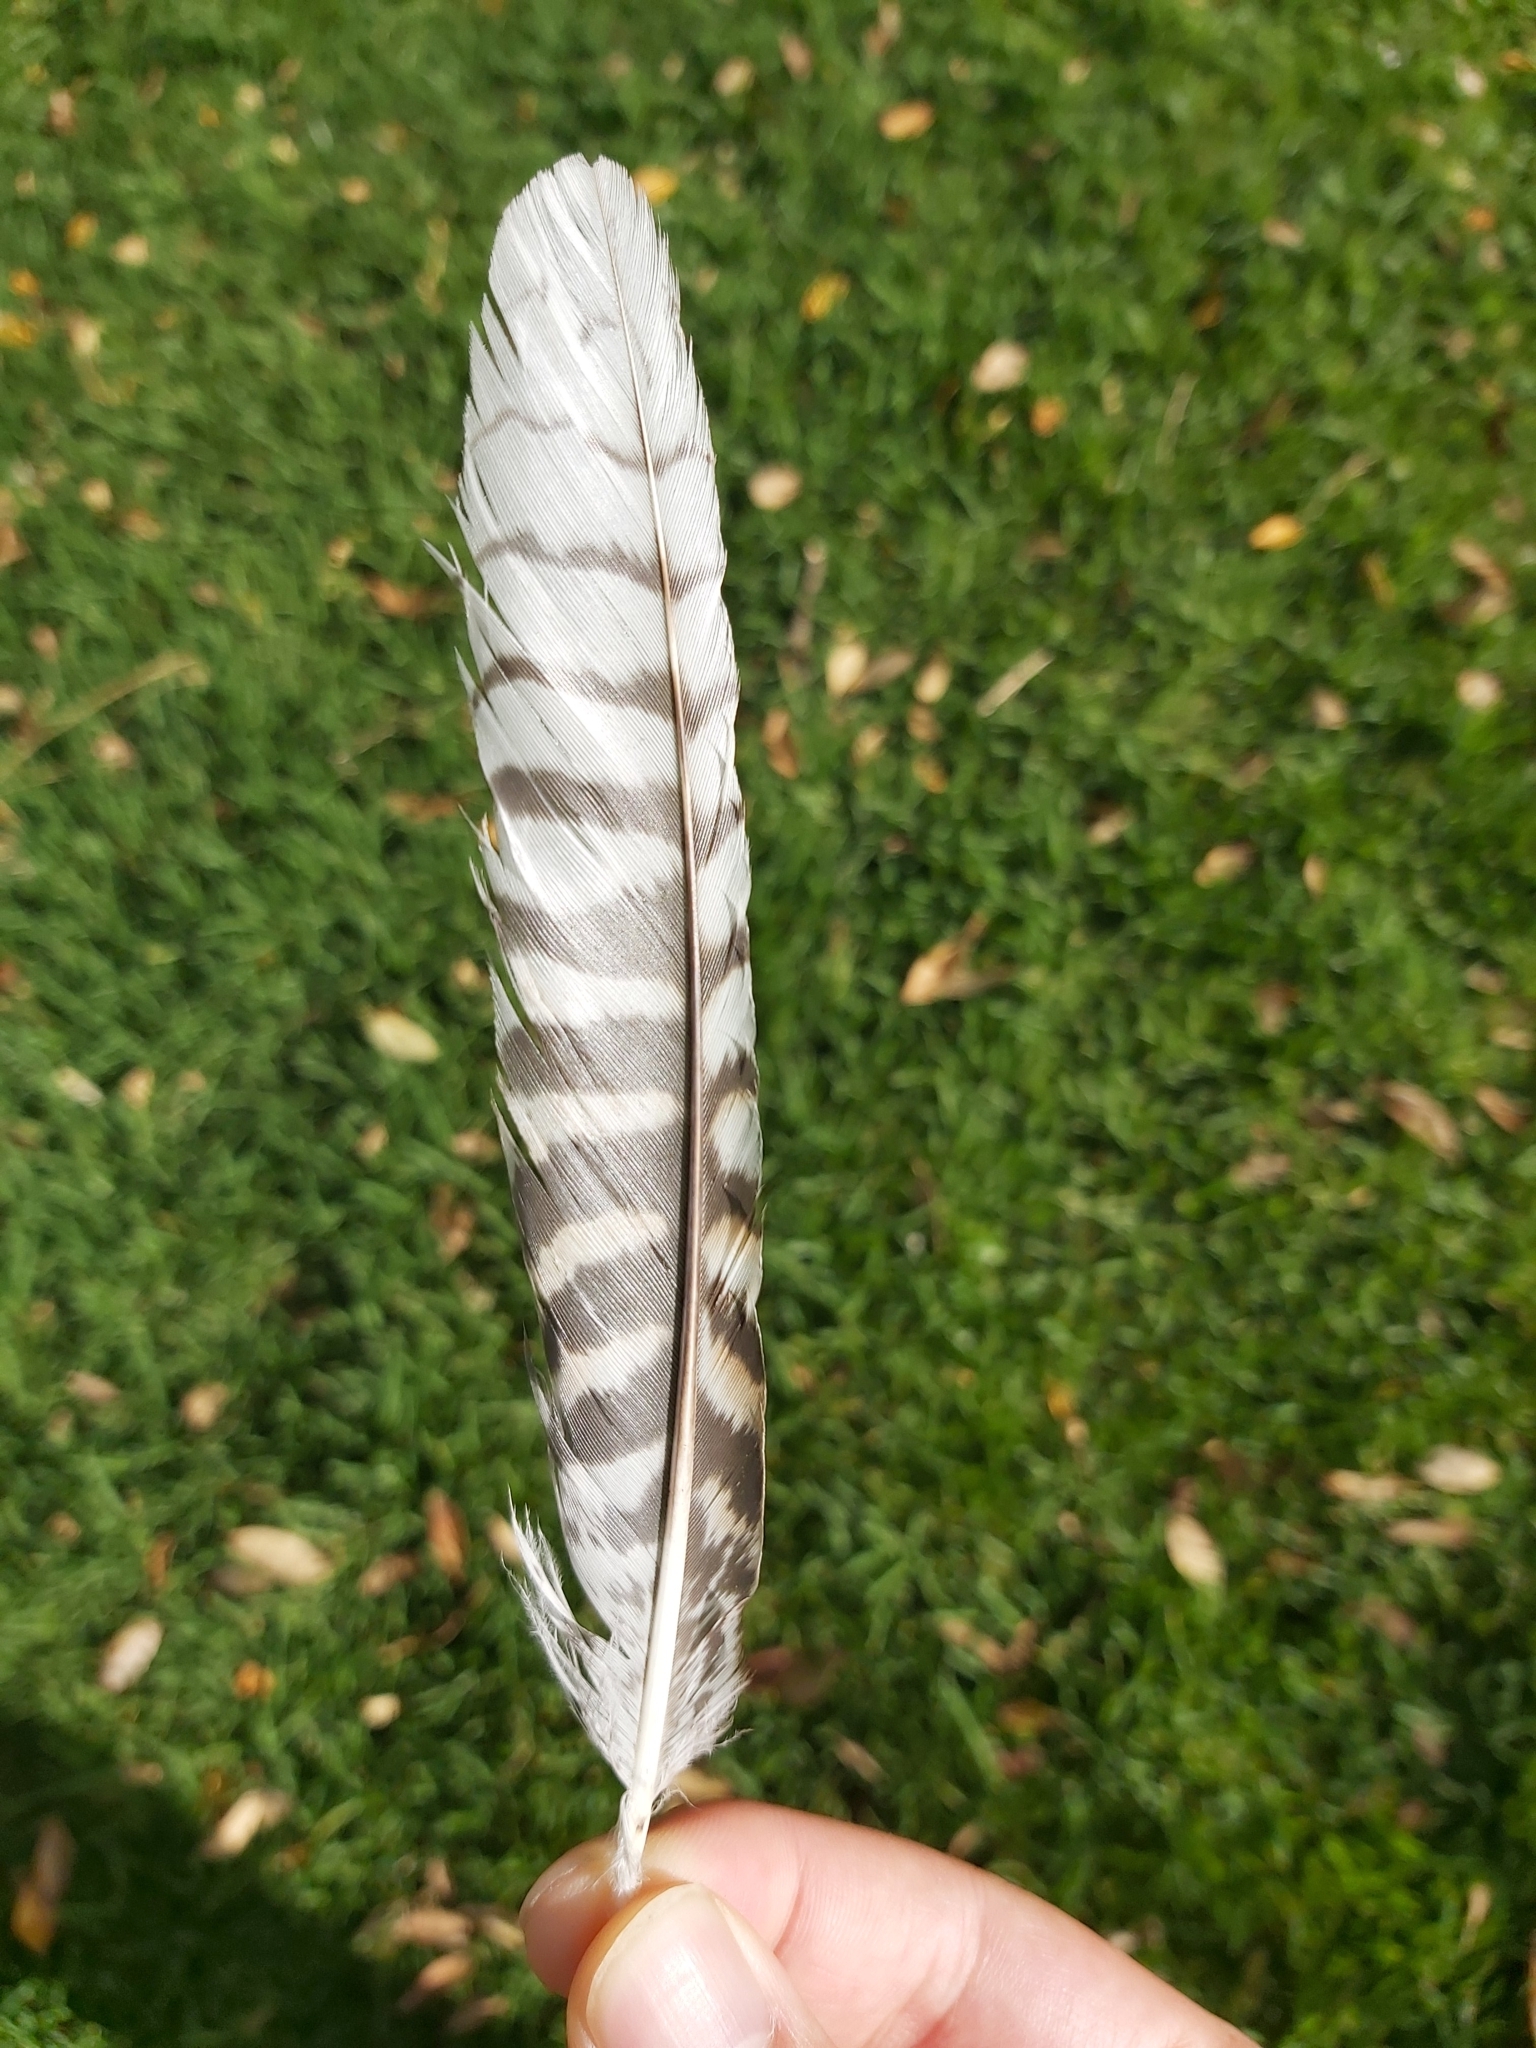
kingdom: Animalia
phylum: Chordata
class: Aves
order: Coraciiformes
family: Alcedinidae
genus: Dacelo
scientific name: Dacelo novaeguineae
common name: Laughing kookaburra
